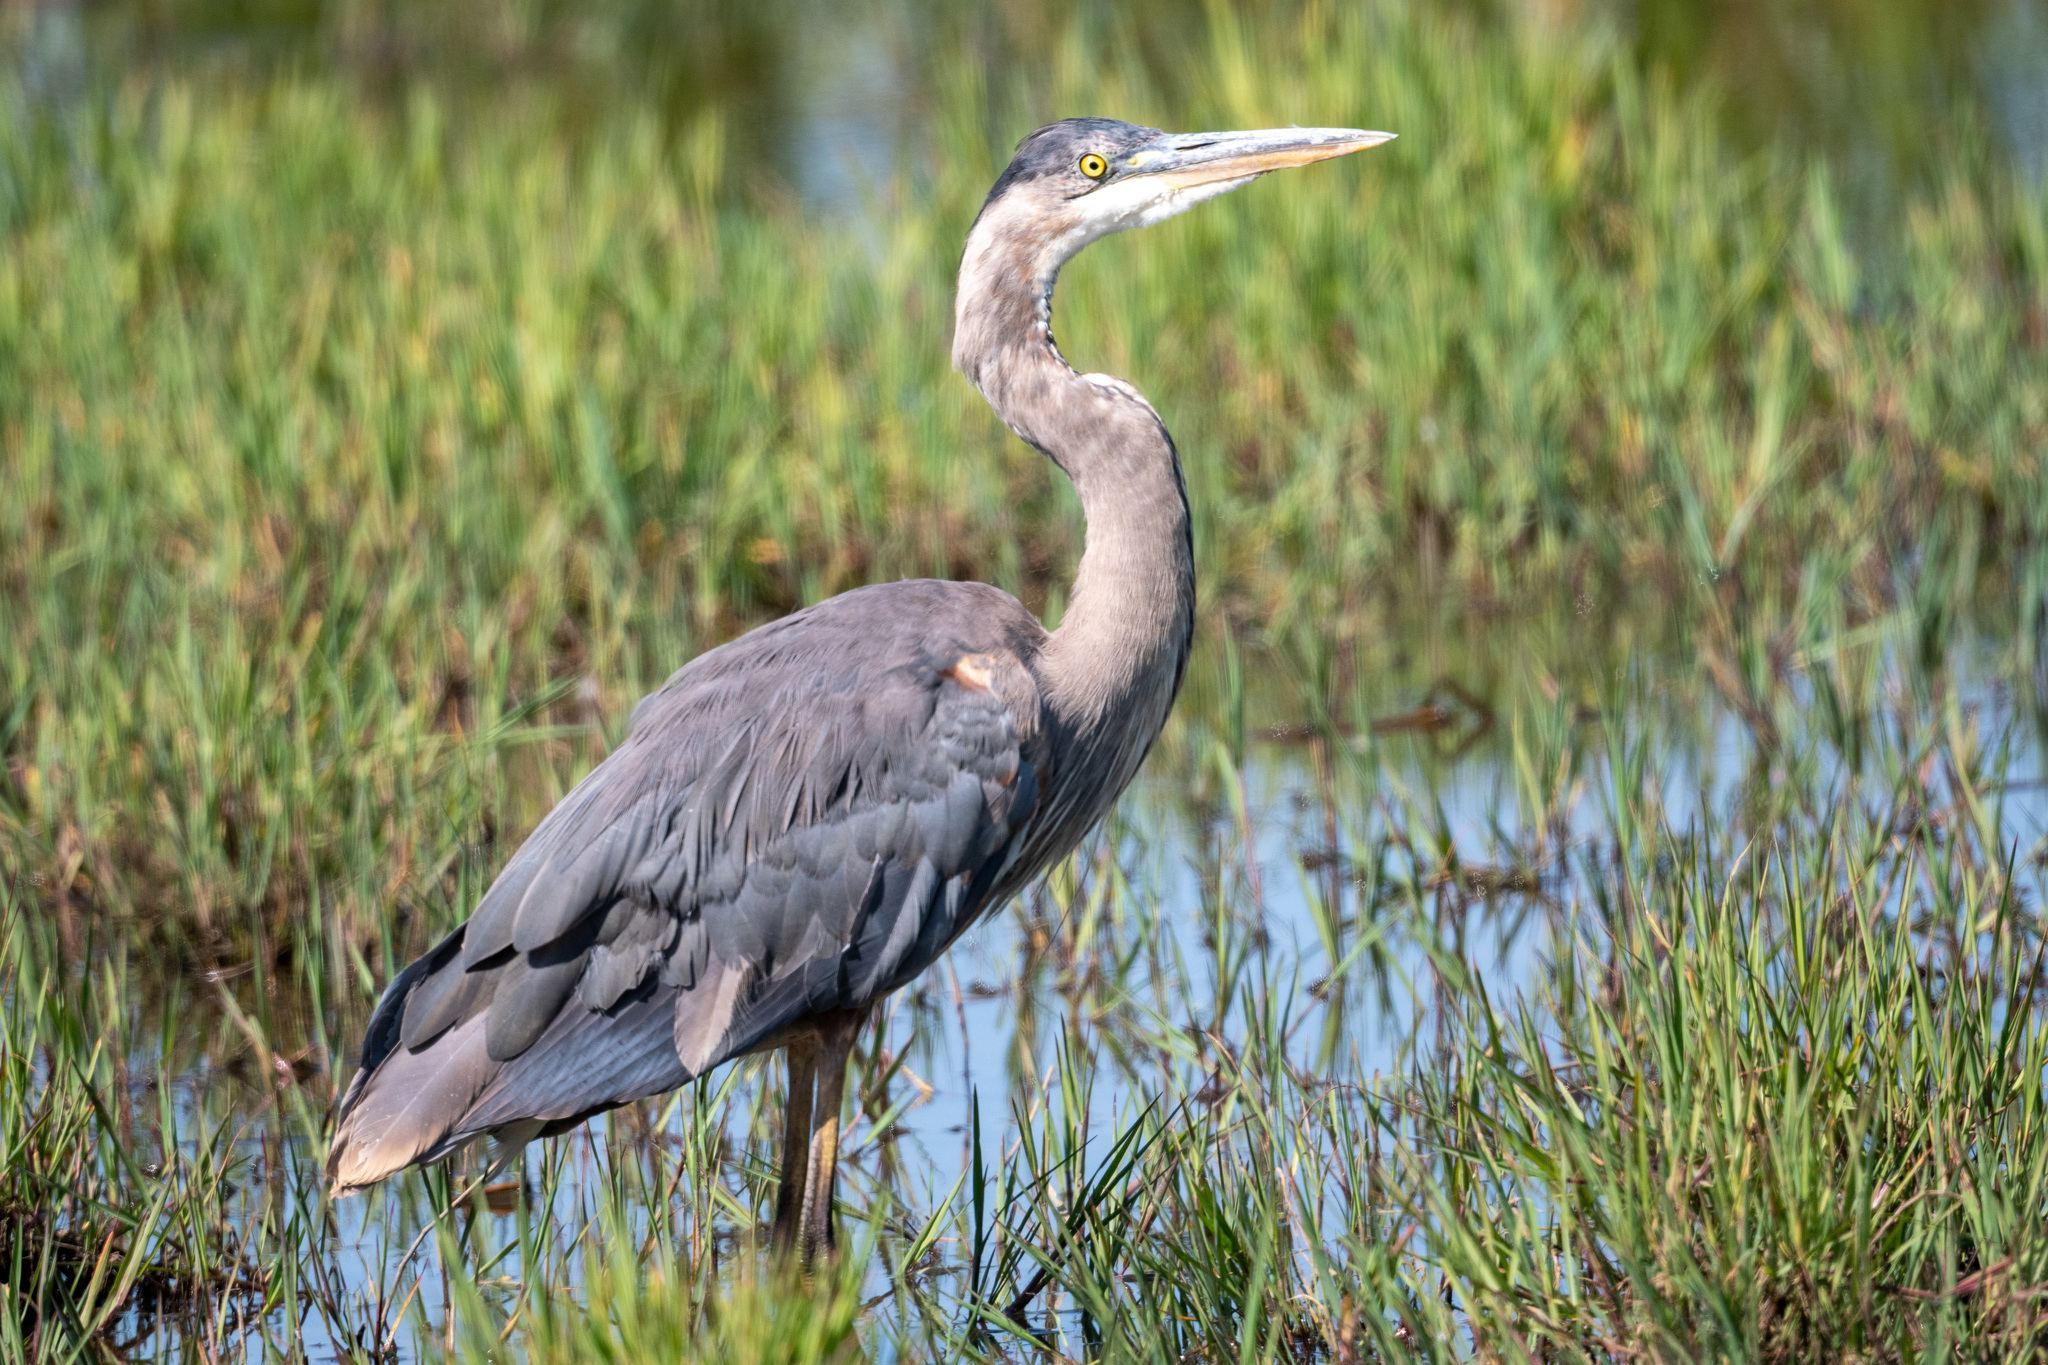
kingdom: Animalia
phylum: Chordata
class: Aves
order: Pelecaniformes
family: Ardeidae
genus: Ardea
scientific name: Ardea herodias
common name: Great blue heron
